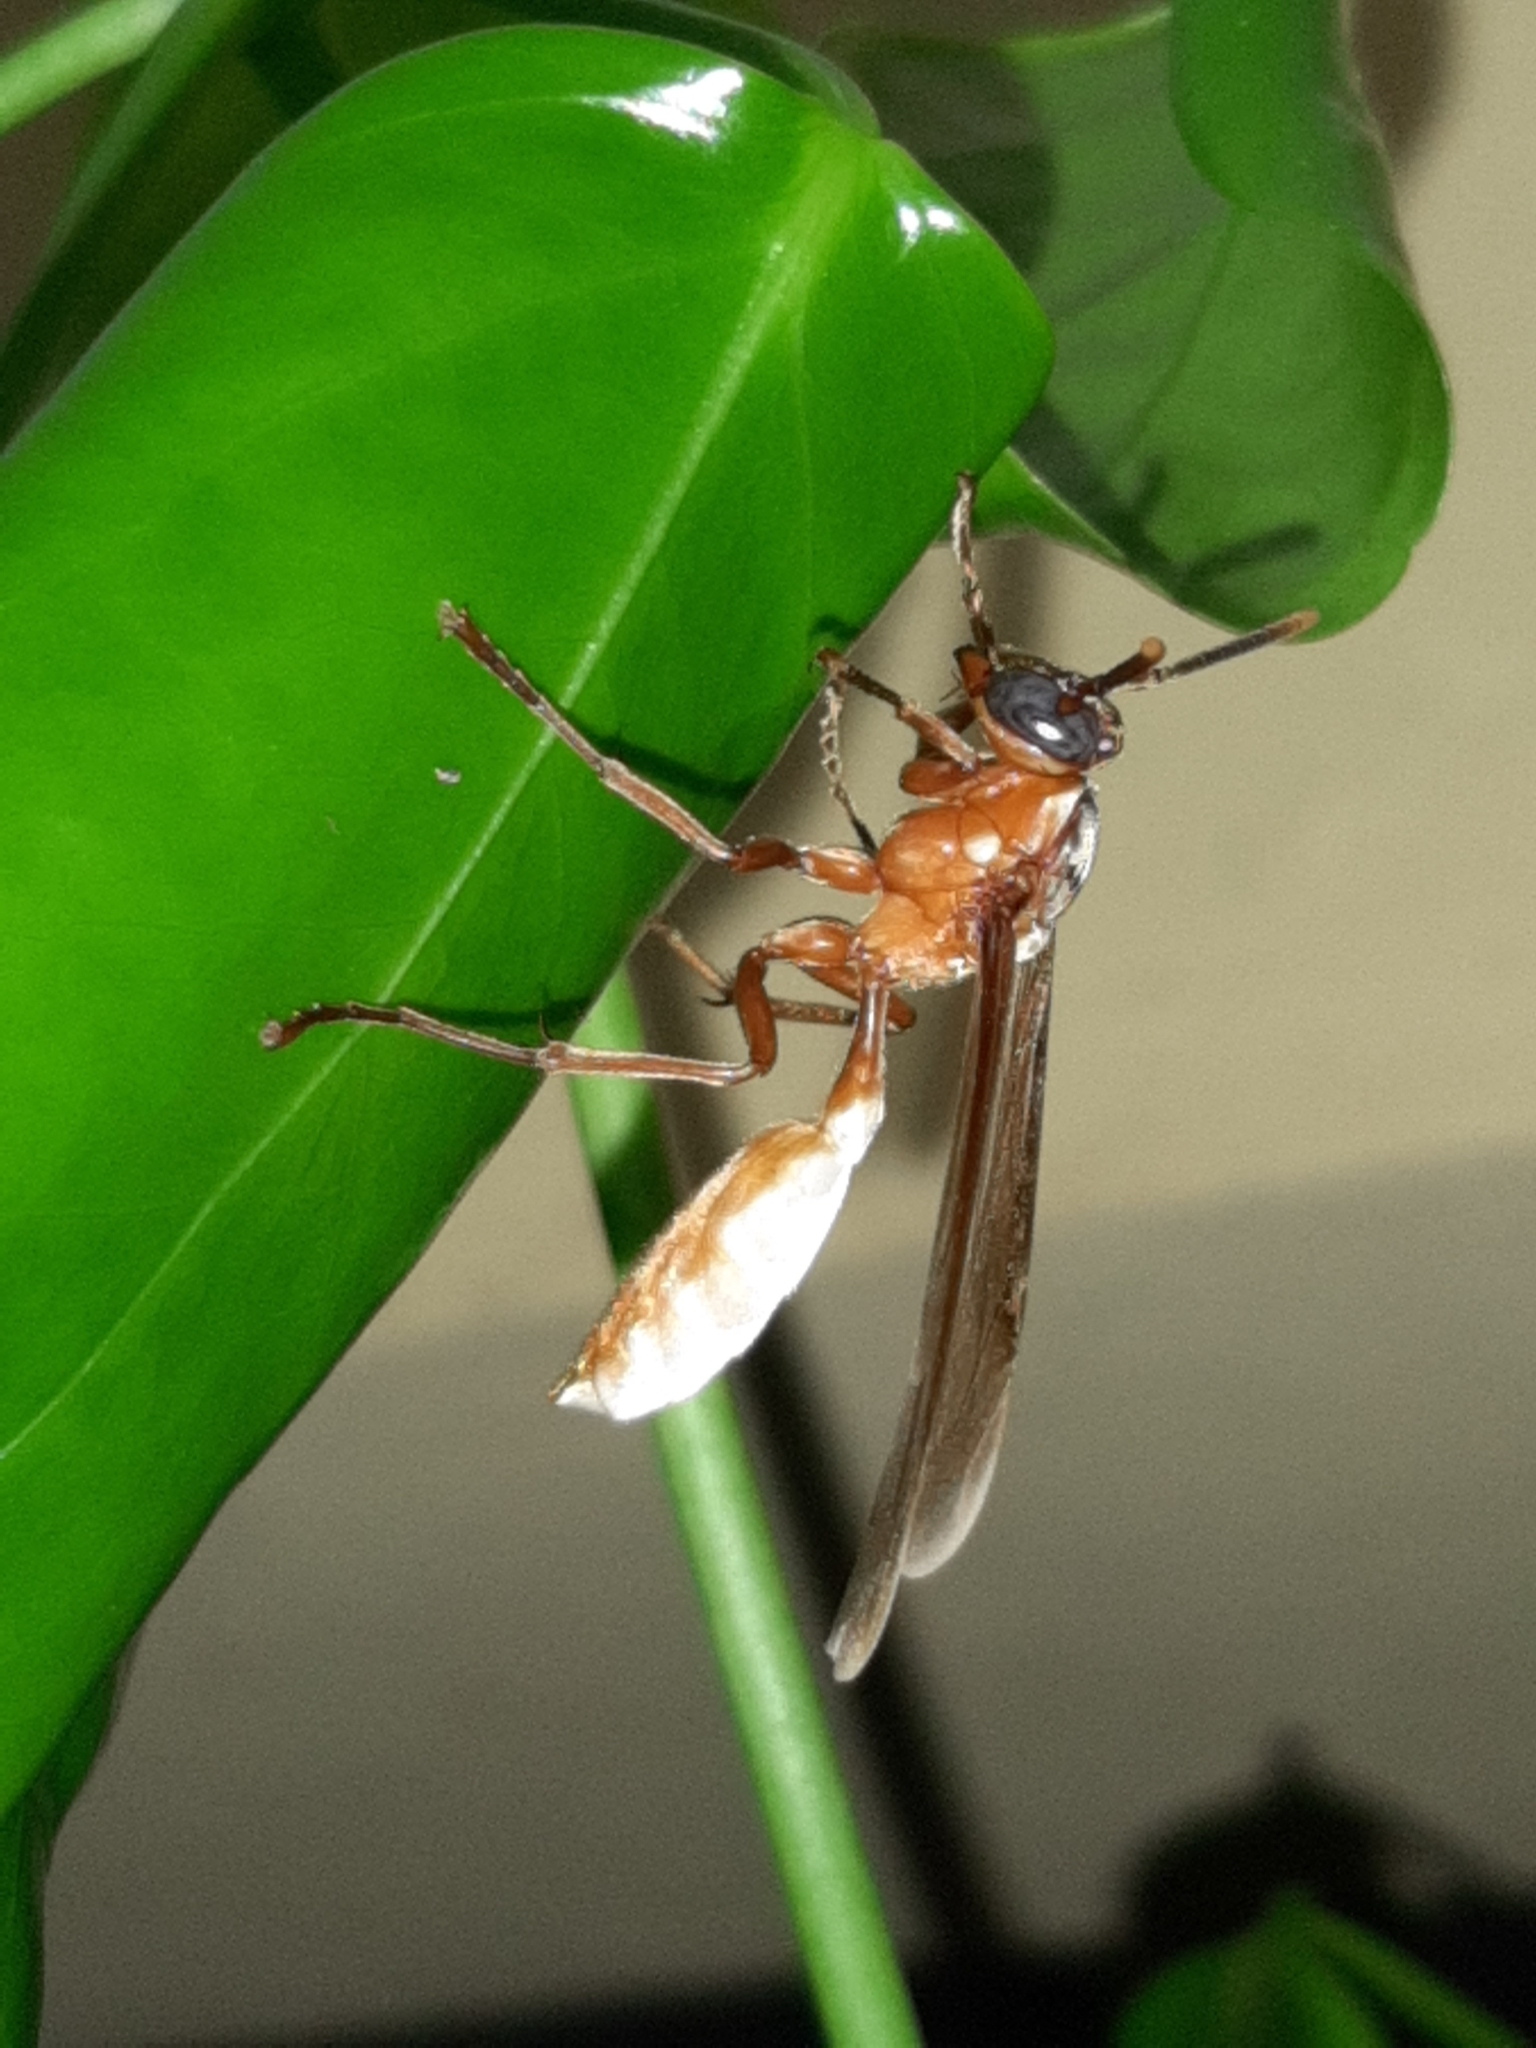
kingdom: Animalia
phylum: Arthropoda
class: Insecta
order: Hymenoptera
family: Vespidae
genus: Apoica
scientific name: Apoica pallens
